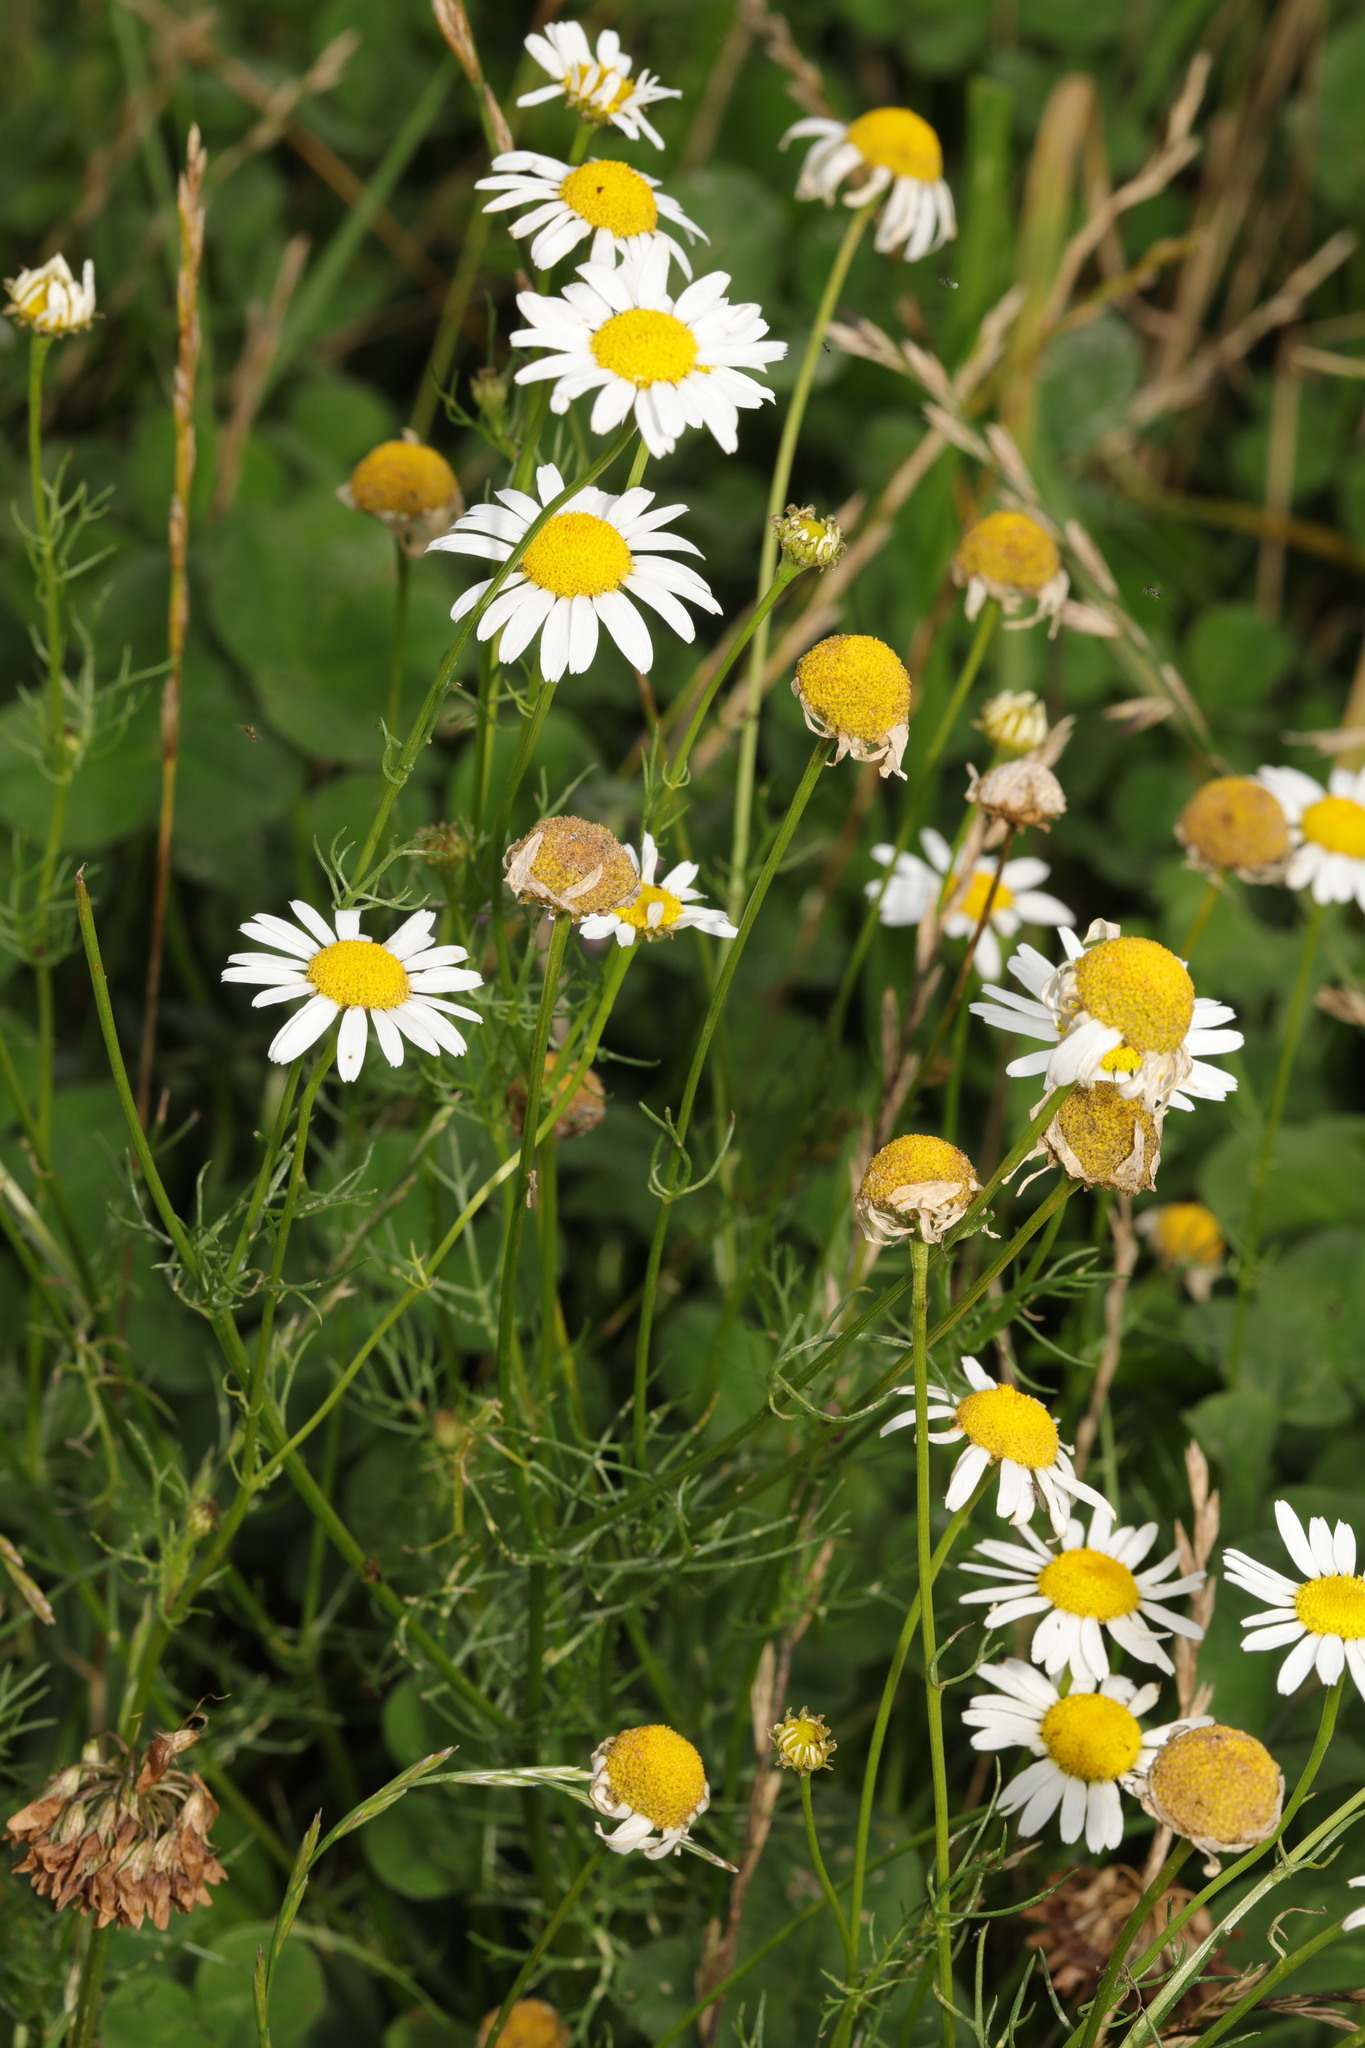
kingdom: Plantae
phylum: Tracheophyta
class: Magnoliopsida
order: Asterales
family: Asteraceae
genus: Tripleurospermum
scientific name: Tripleurospermum inodorum
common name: Scentless mayweed
